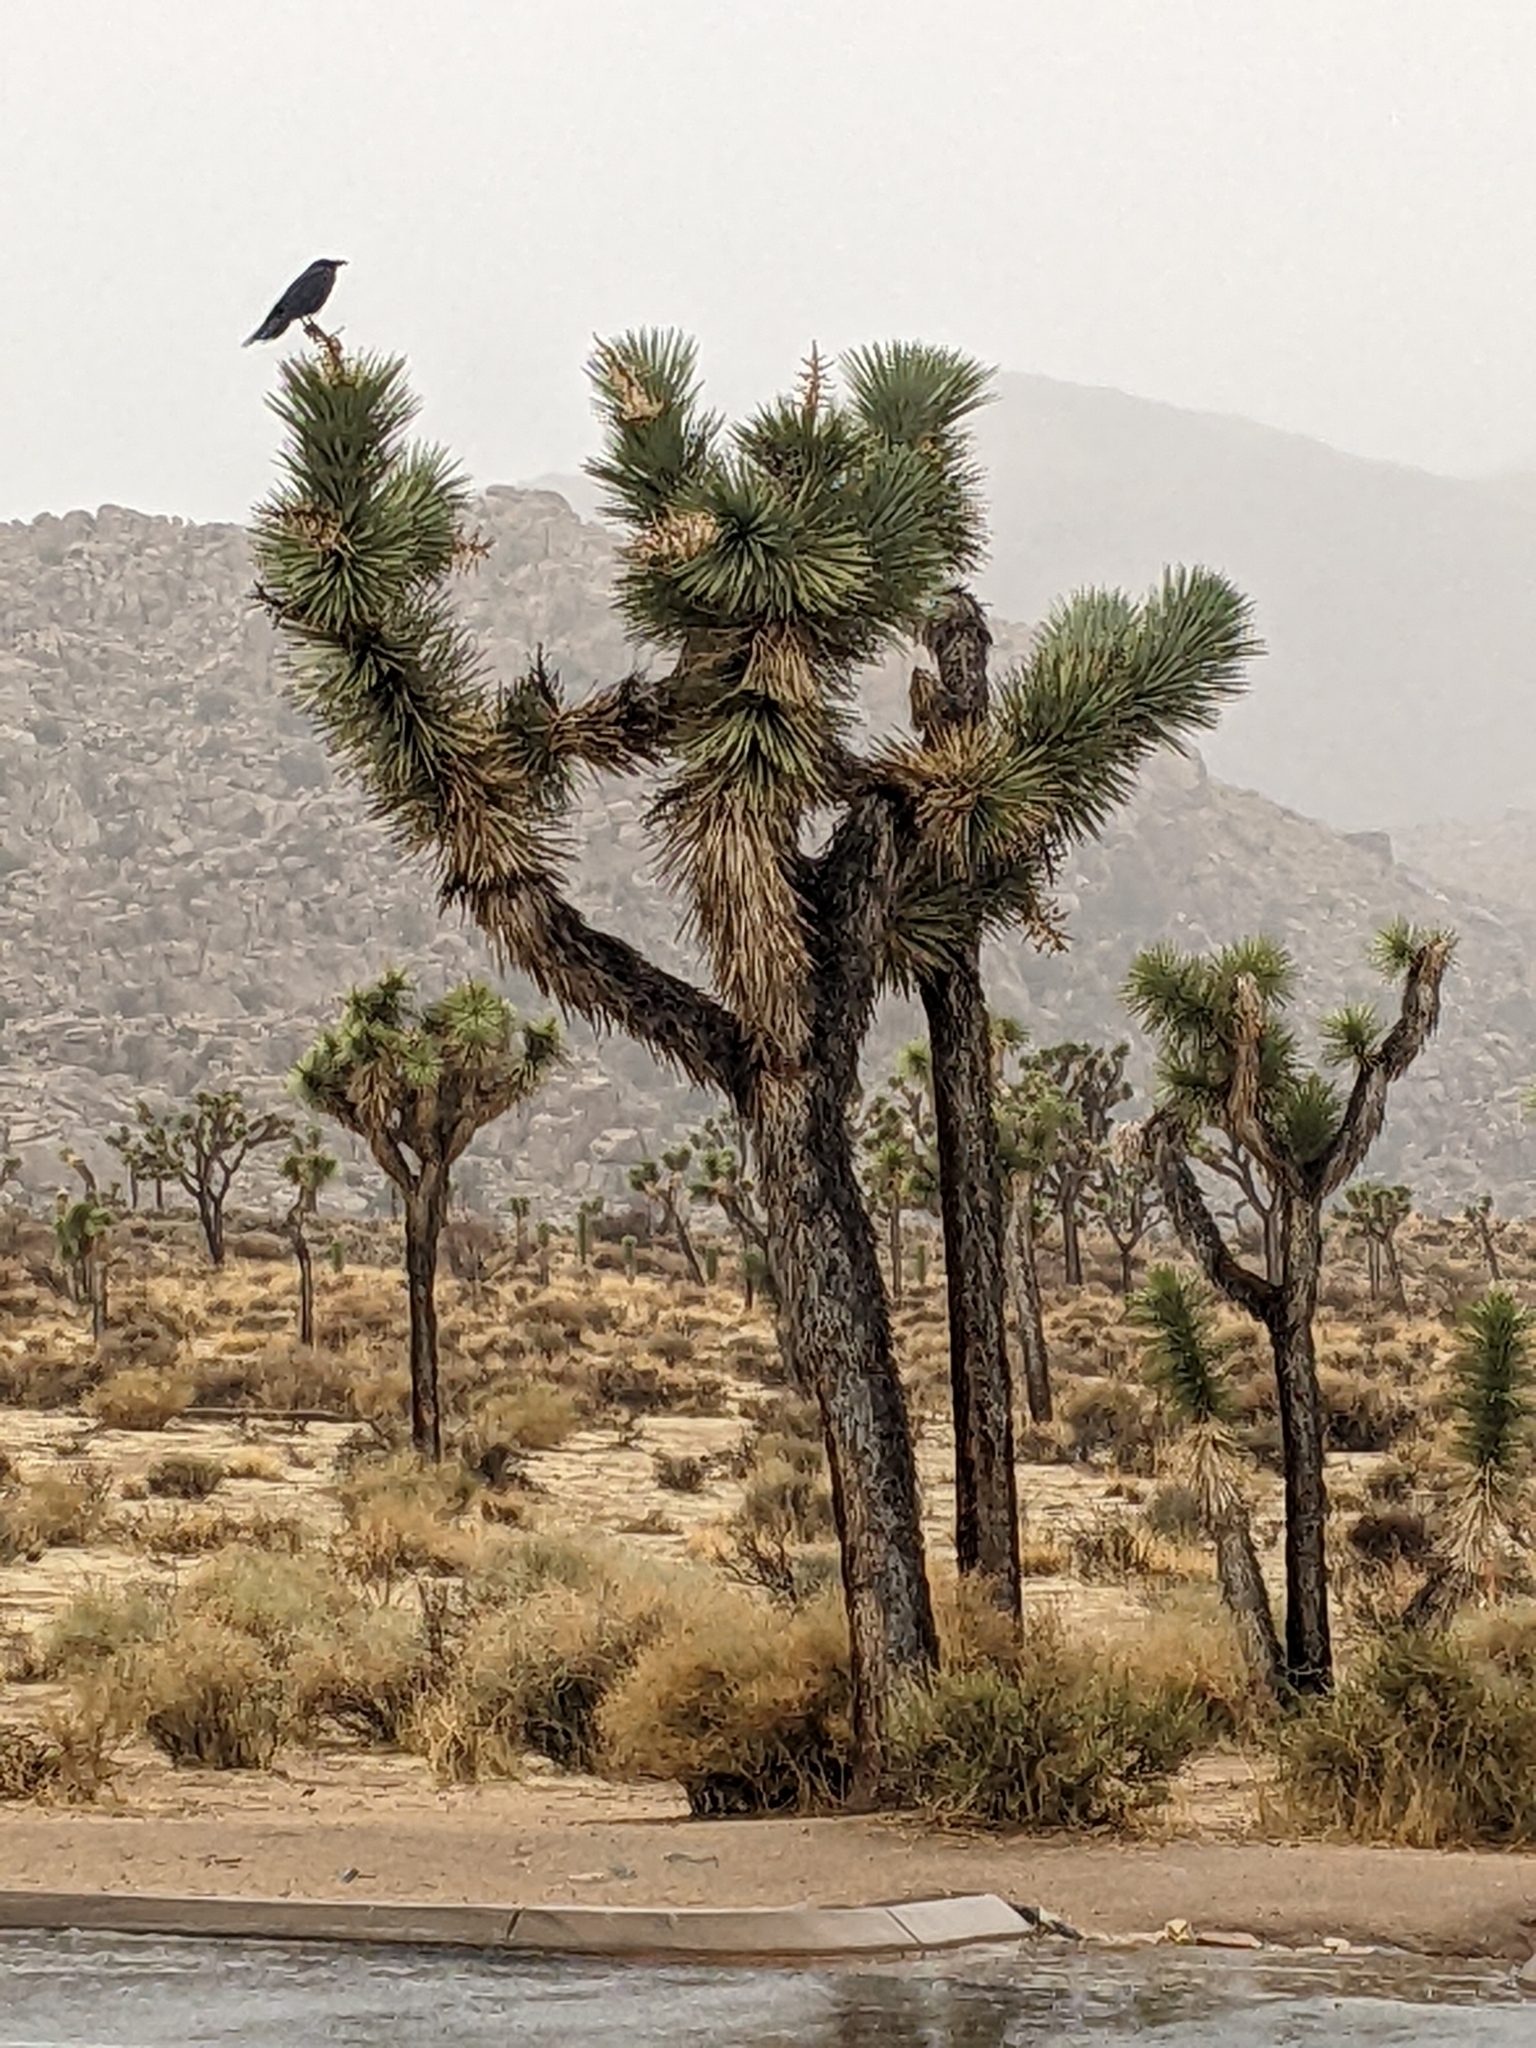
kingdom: Animalia
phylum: Chordata
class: Aves
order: Passeriformes
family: Corvidae
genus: Corvus
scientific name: Corvus corax
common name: Common raven
